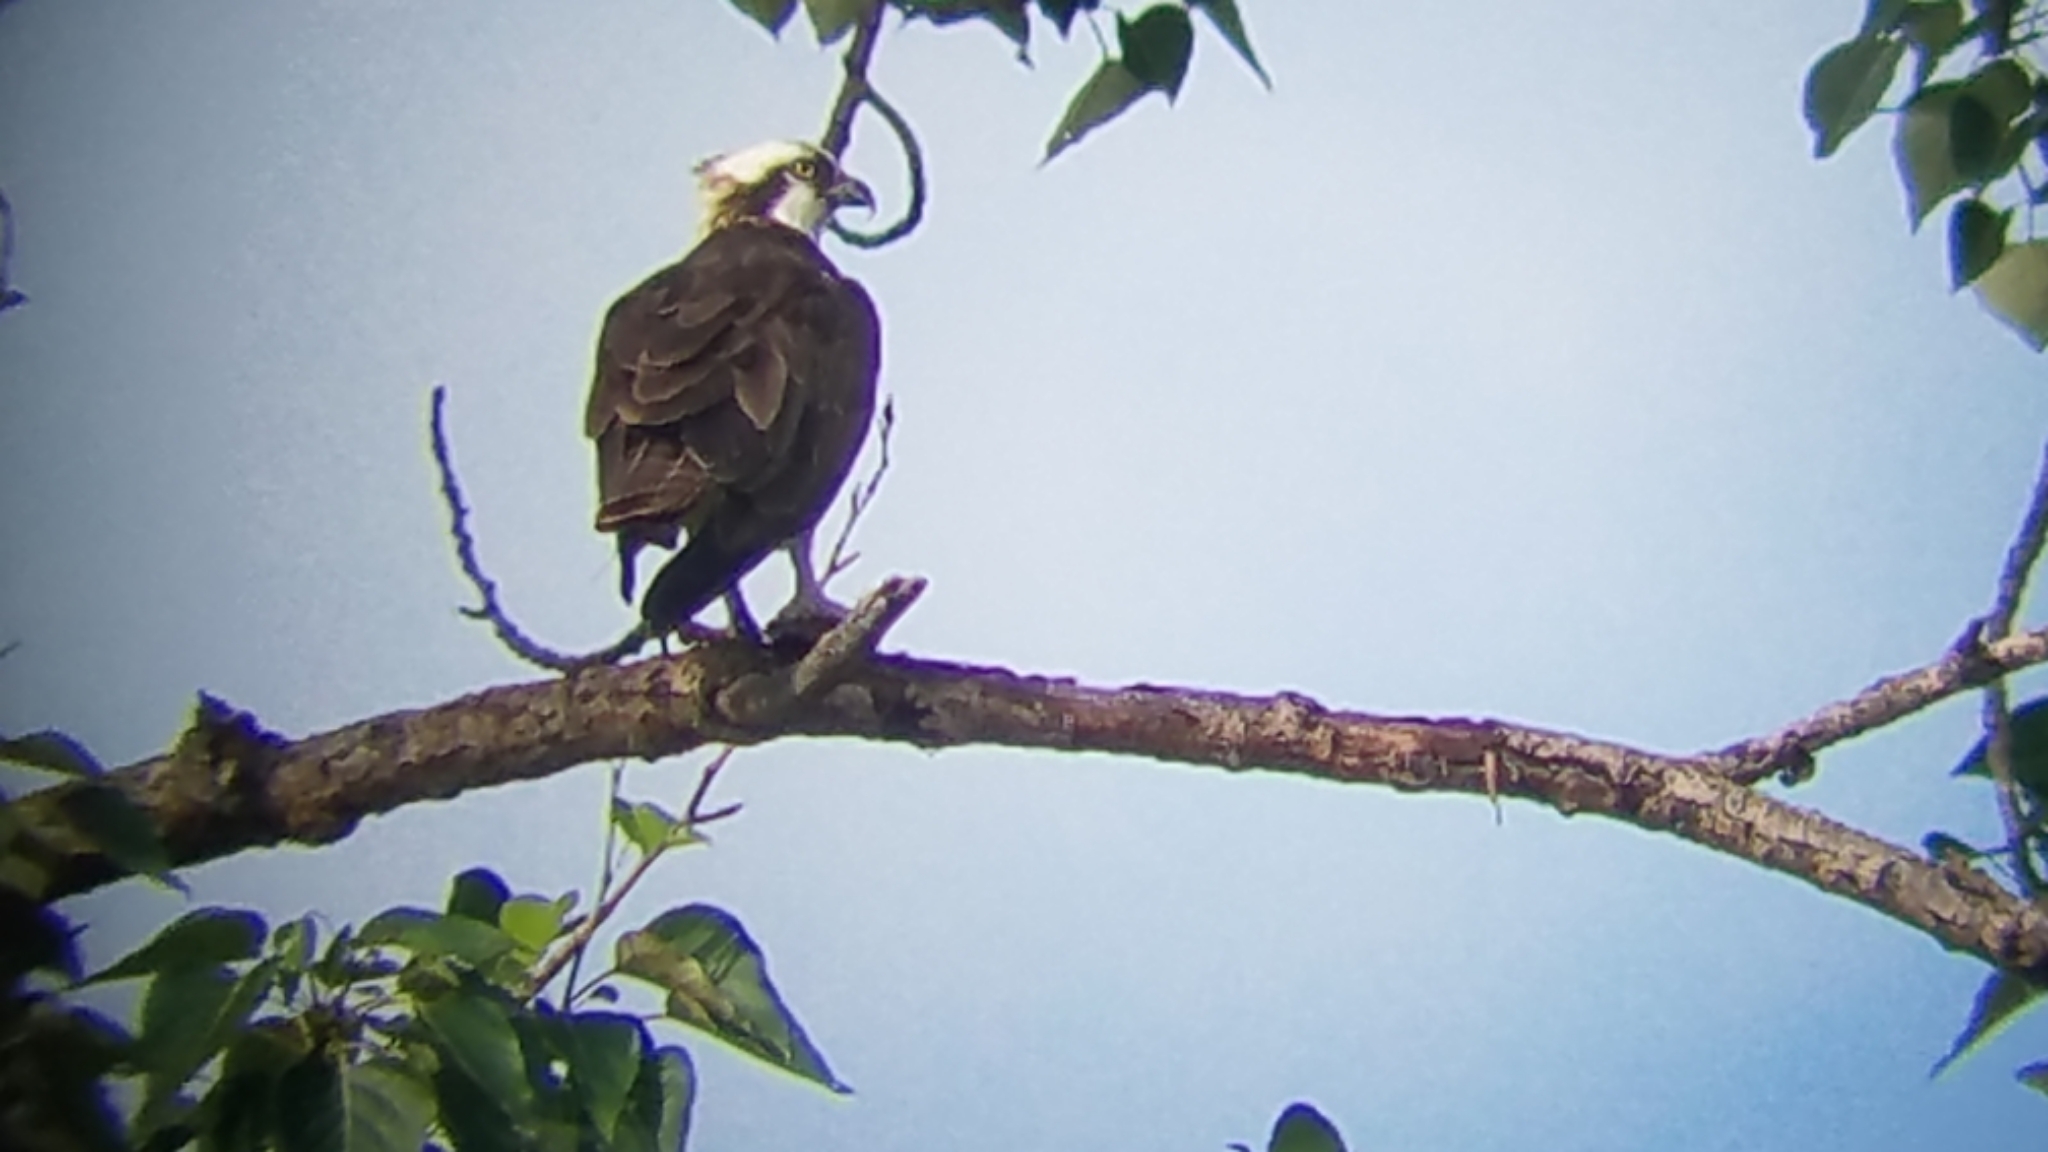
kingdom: Animalia
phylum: Chordata
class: Aves
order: Accipitriformes
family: Pandionidae
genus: Pandion
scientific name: Pandion haliaetus
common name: Osprey
